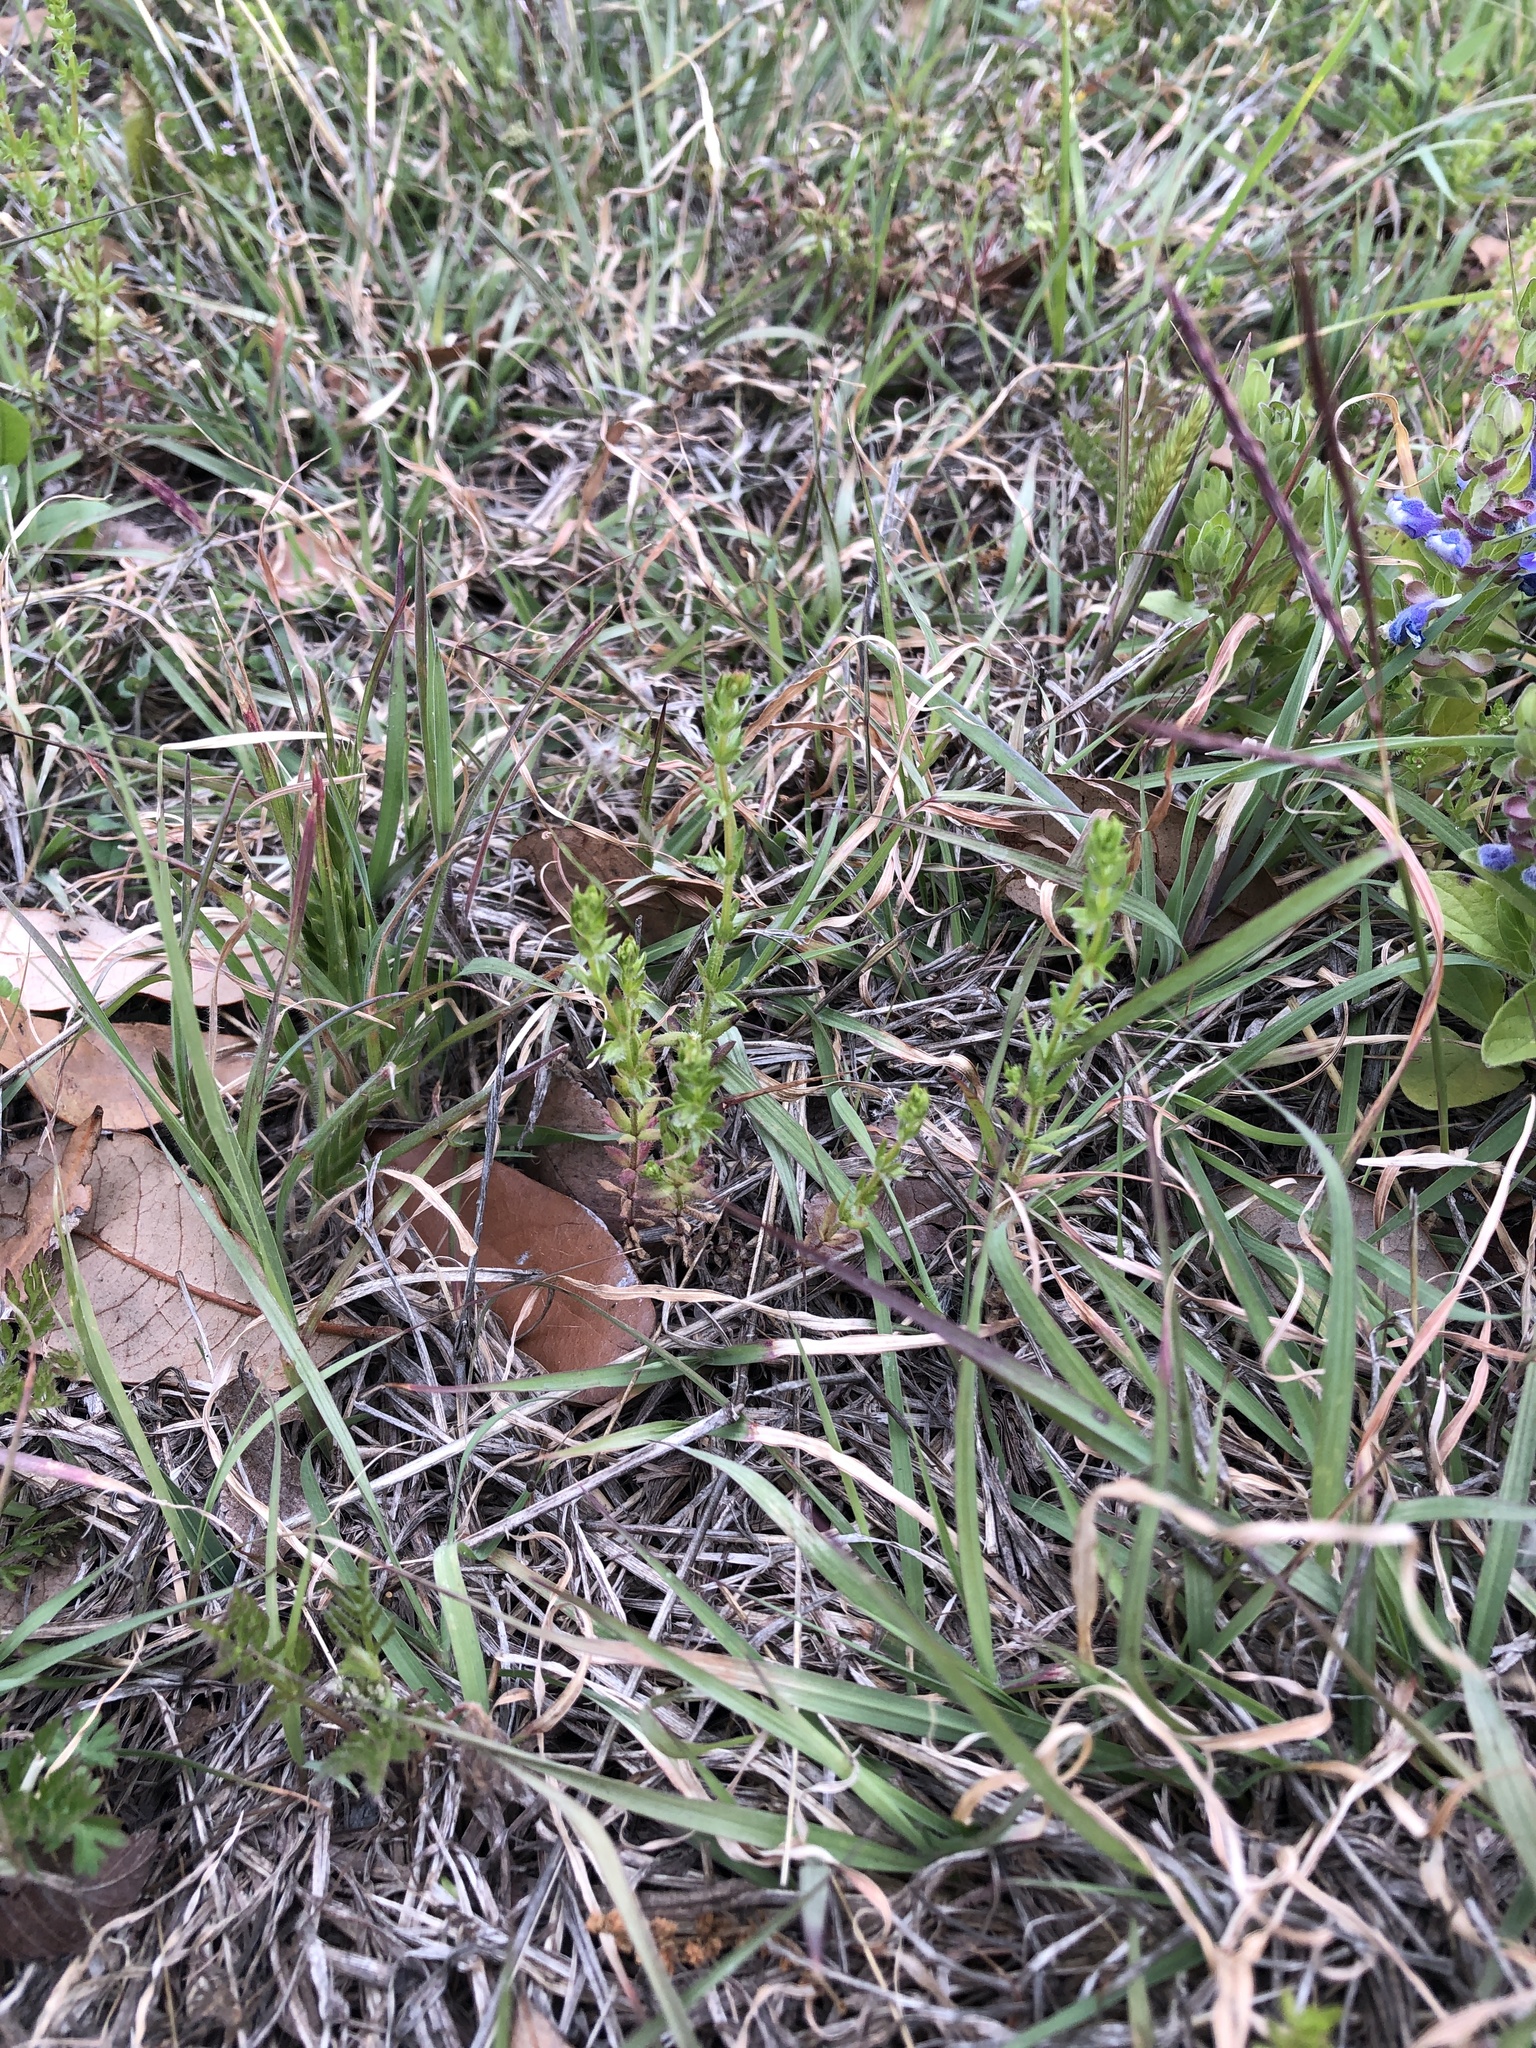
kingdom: Plantae
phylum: Tracheophyta
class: Magnoliopsida
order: Gentianales
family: Rubiaceae
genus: Galium
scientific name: Galium virgatum
